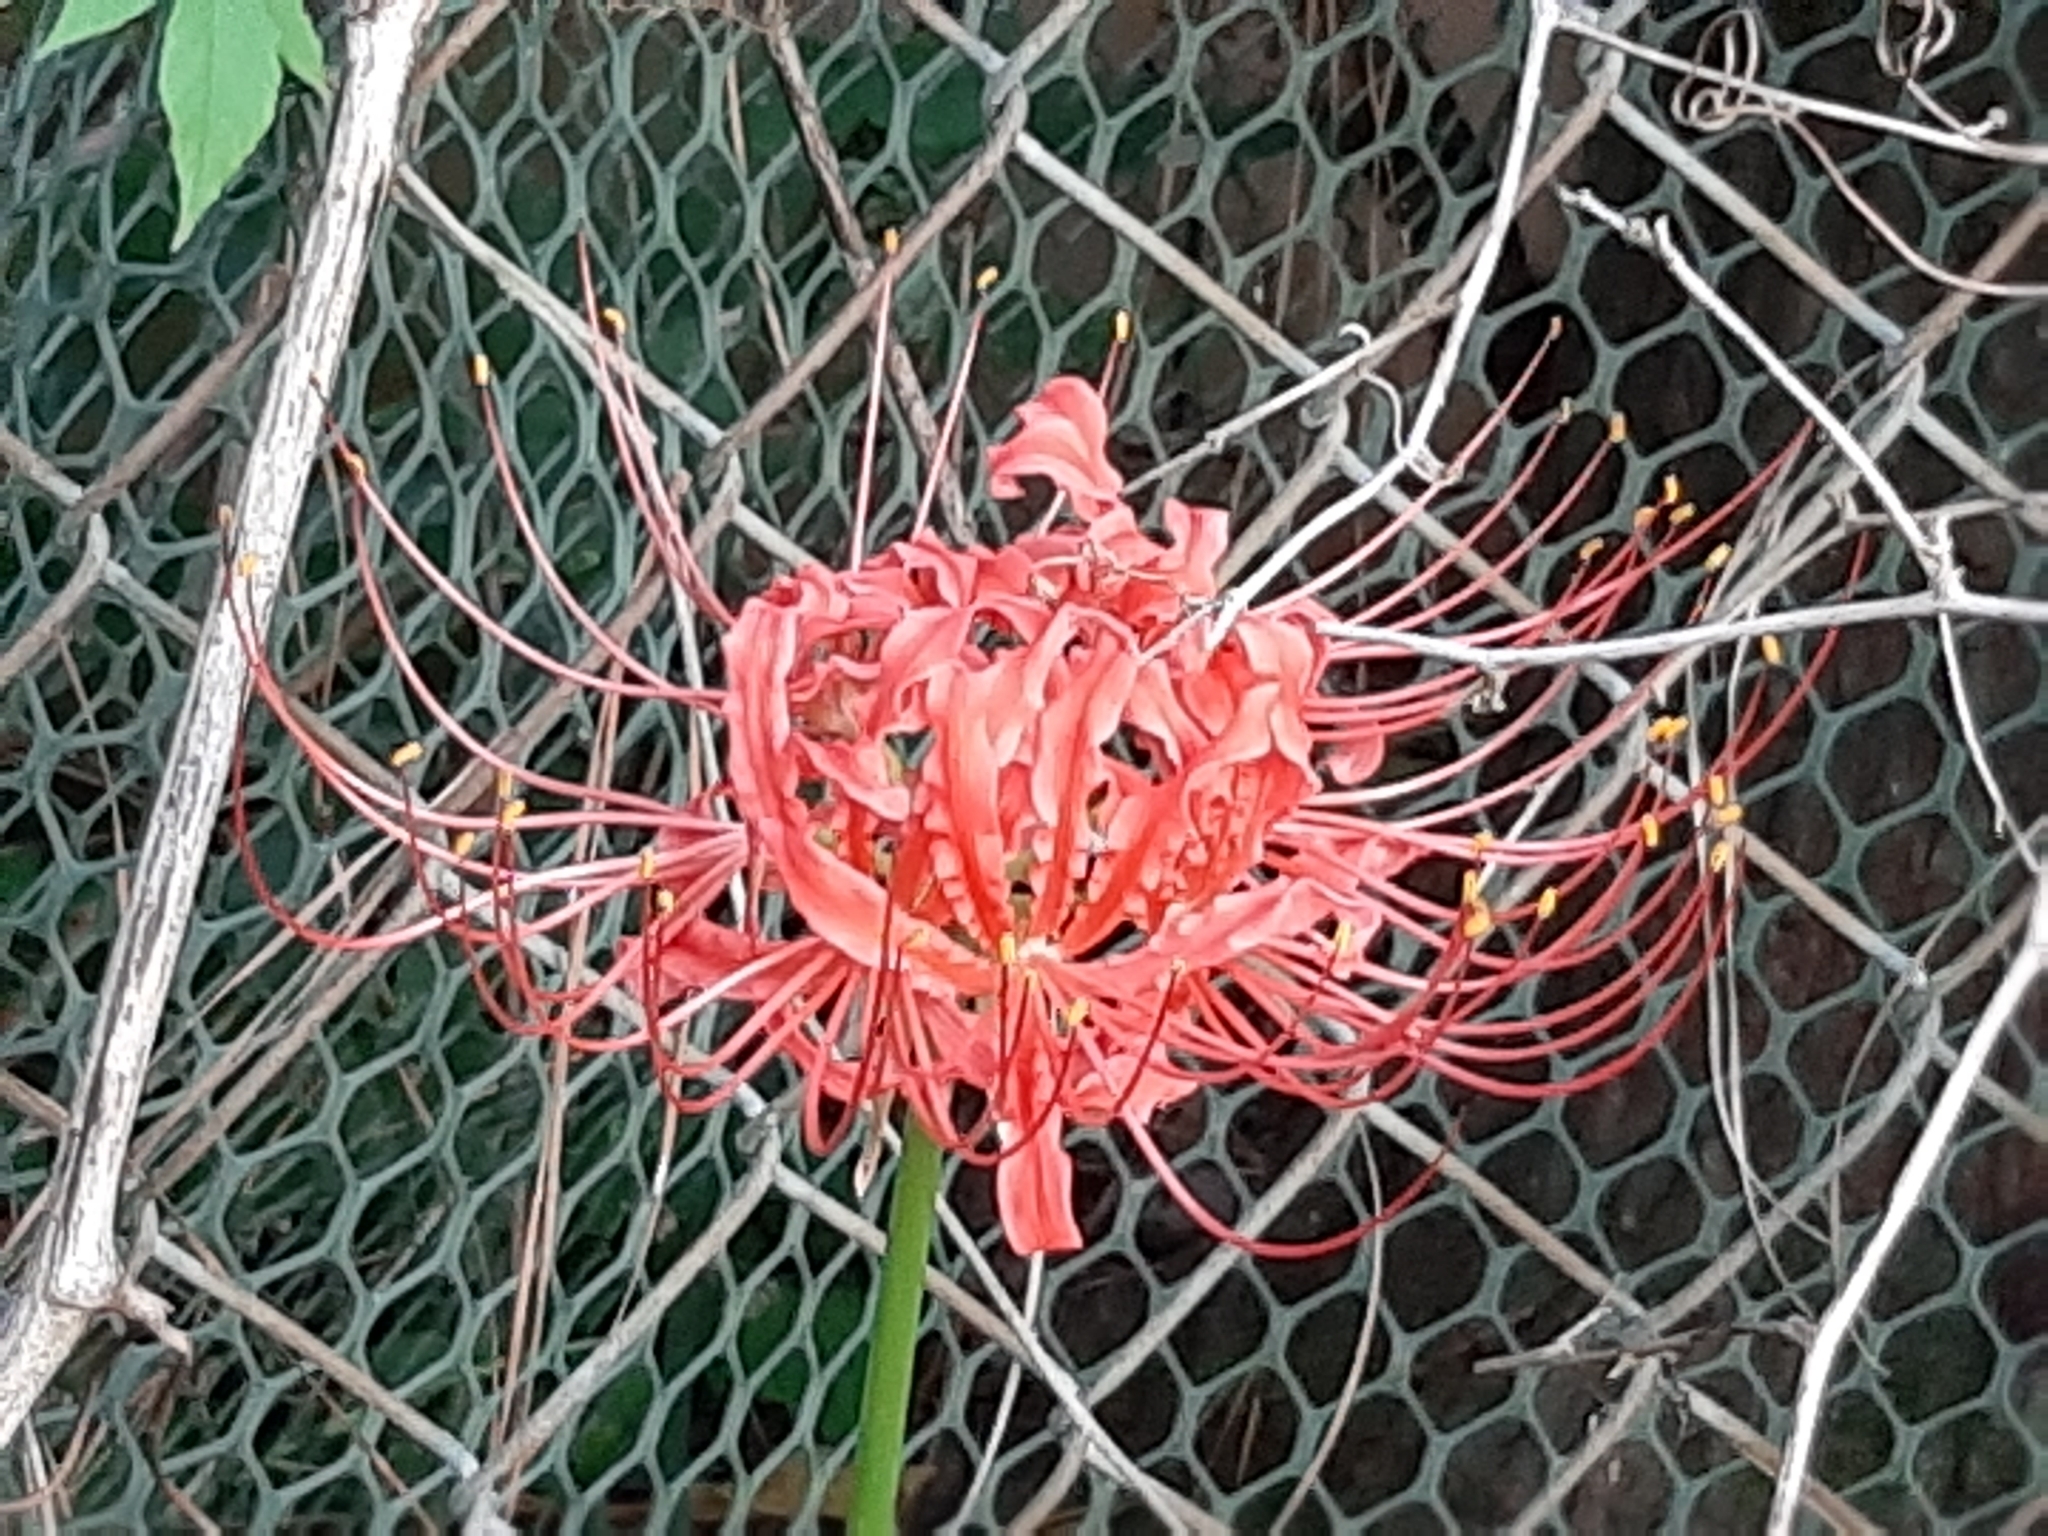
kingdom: Plantae
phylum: Tracheophyta
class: Liliopsida
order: Asparagales
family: Amaryllidaceae
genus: Lycoris
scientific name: Lycoris radiata
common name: Red spider lily
